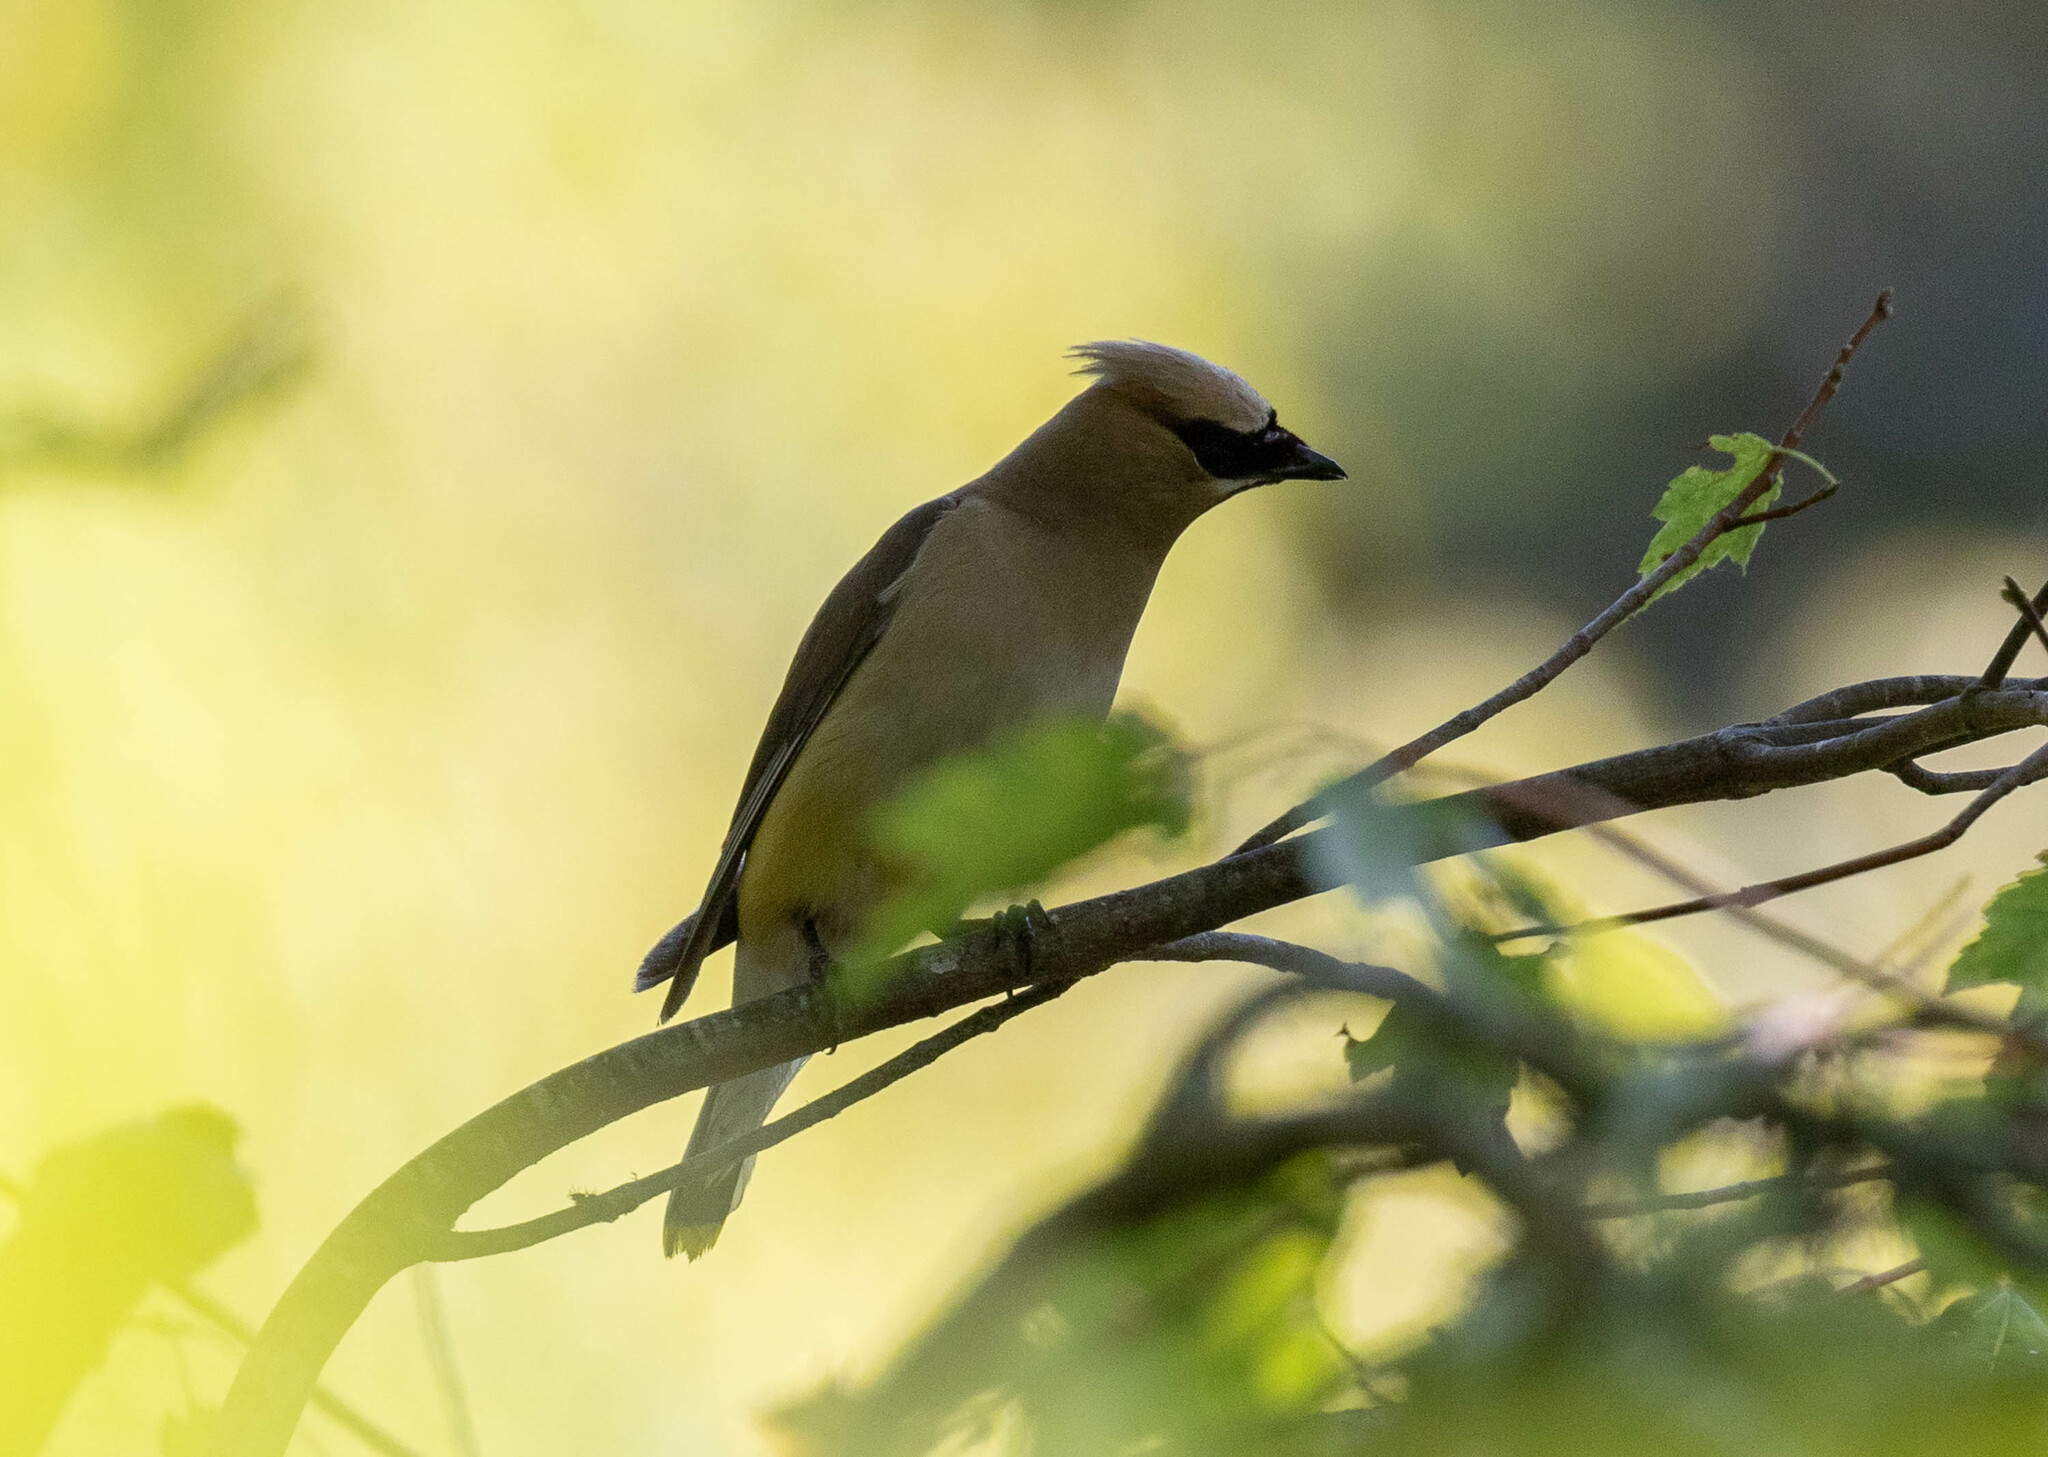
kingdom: Animalia
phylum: Chordata
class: Aves
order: Passeriformes
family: Bombycillidae
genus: Bombycilla
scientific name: Bombycilla cedrorum
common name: Cedar waxwing
